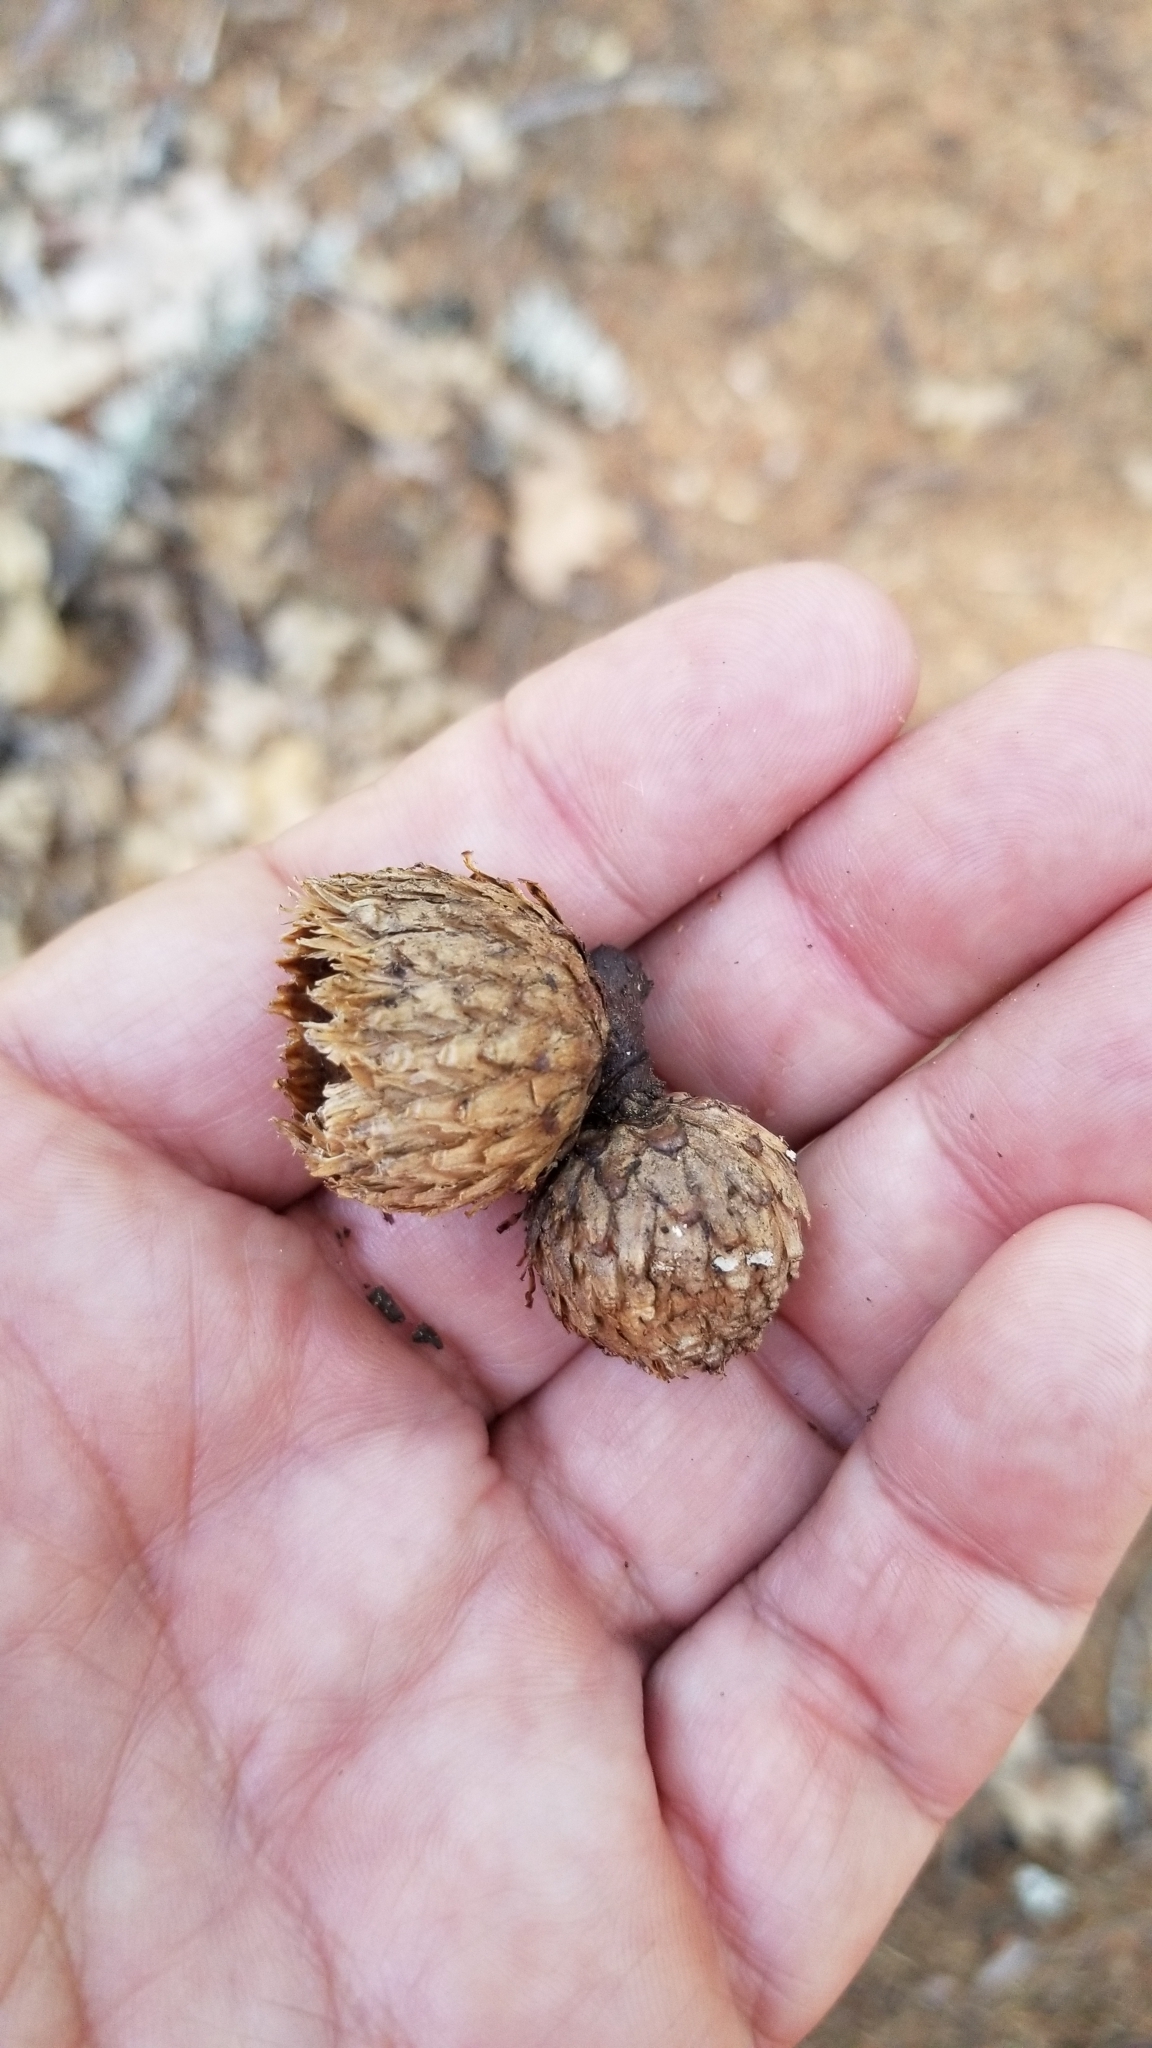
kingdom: Plantae
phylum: Tracheophyta
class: Magnoliopsida
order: Fagales
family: Fagaceae
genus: Quercus
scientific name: Quercus kelloggii
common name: California black oak
